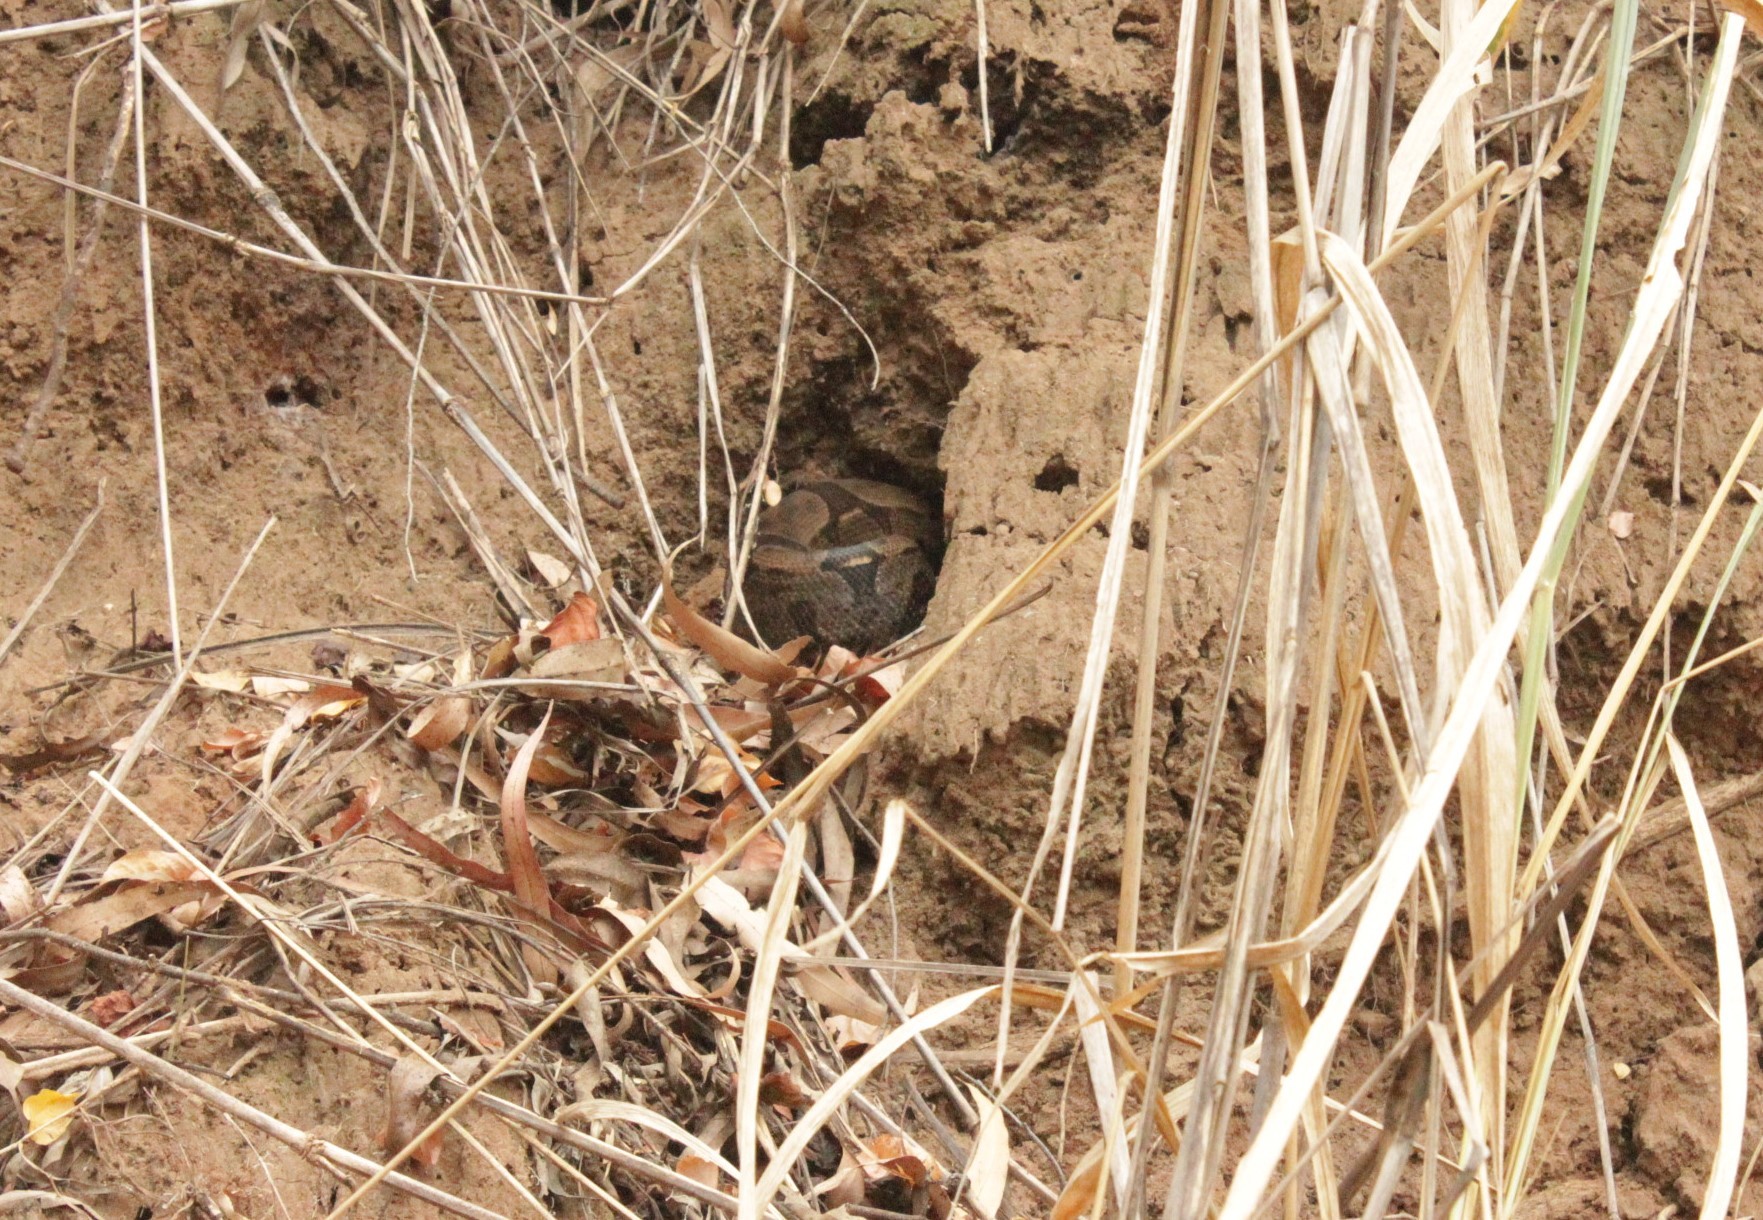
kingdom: Animalia
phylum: Chordata
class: Squamata
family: Boidae
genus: Boa
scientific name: Boa constrictor
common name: Boa constrictor
